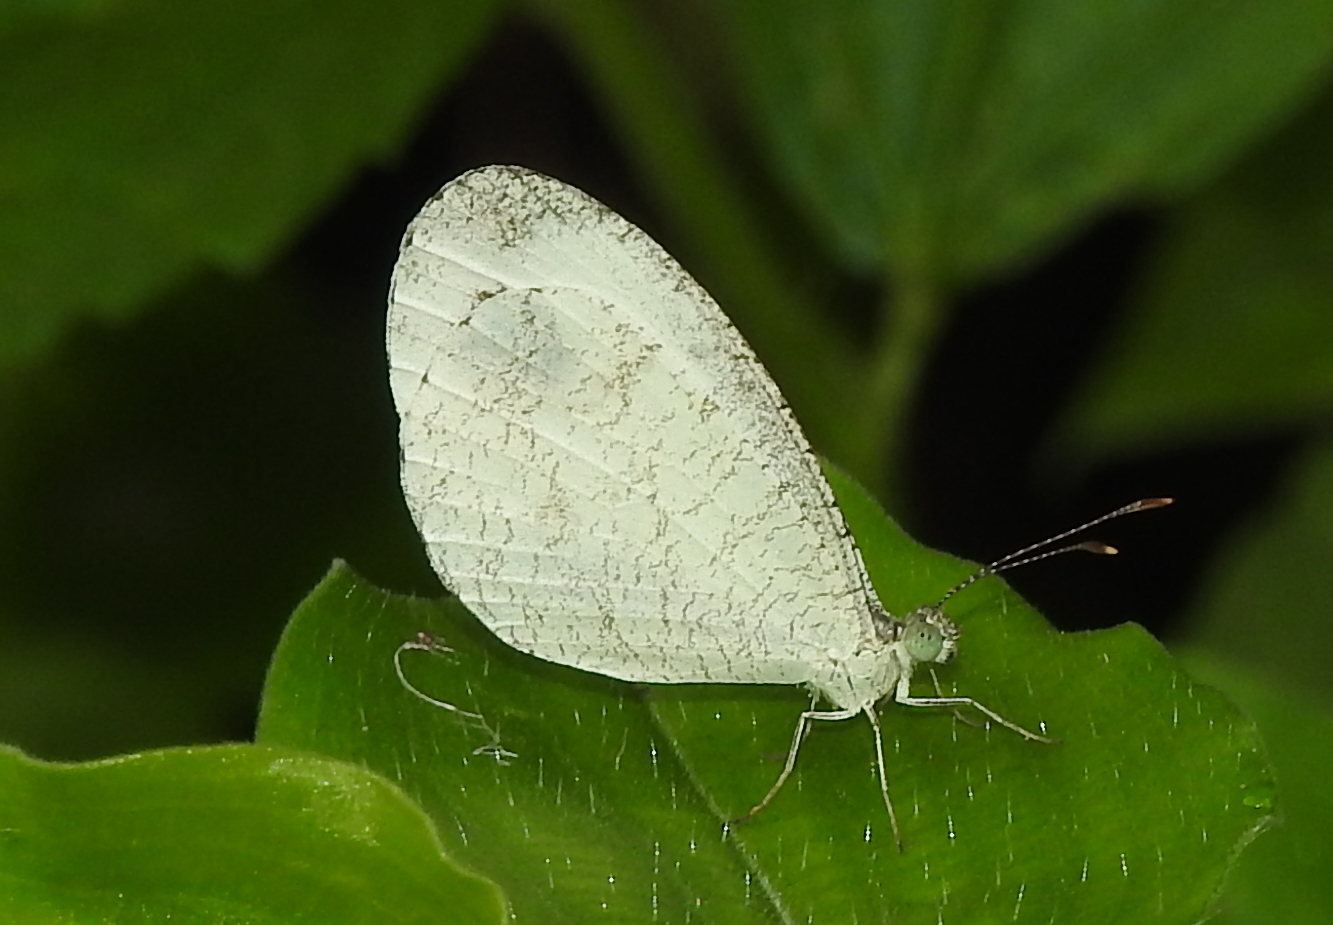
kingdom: Animalia
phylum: Arthropoda
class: Insecta
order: Lepidoptera
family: Pieridae
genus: Leptosia
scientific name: Leptosia nina
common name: Psyche
